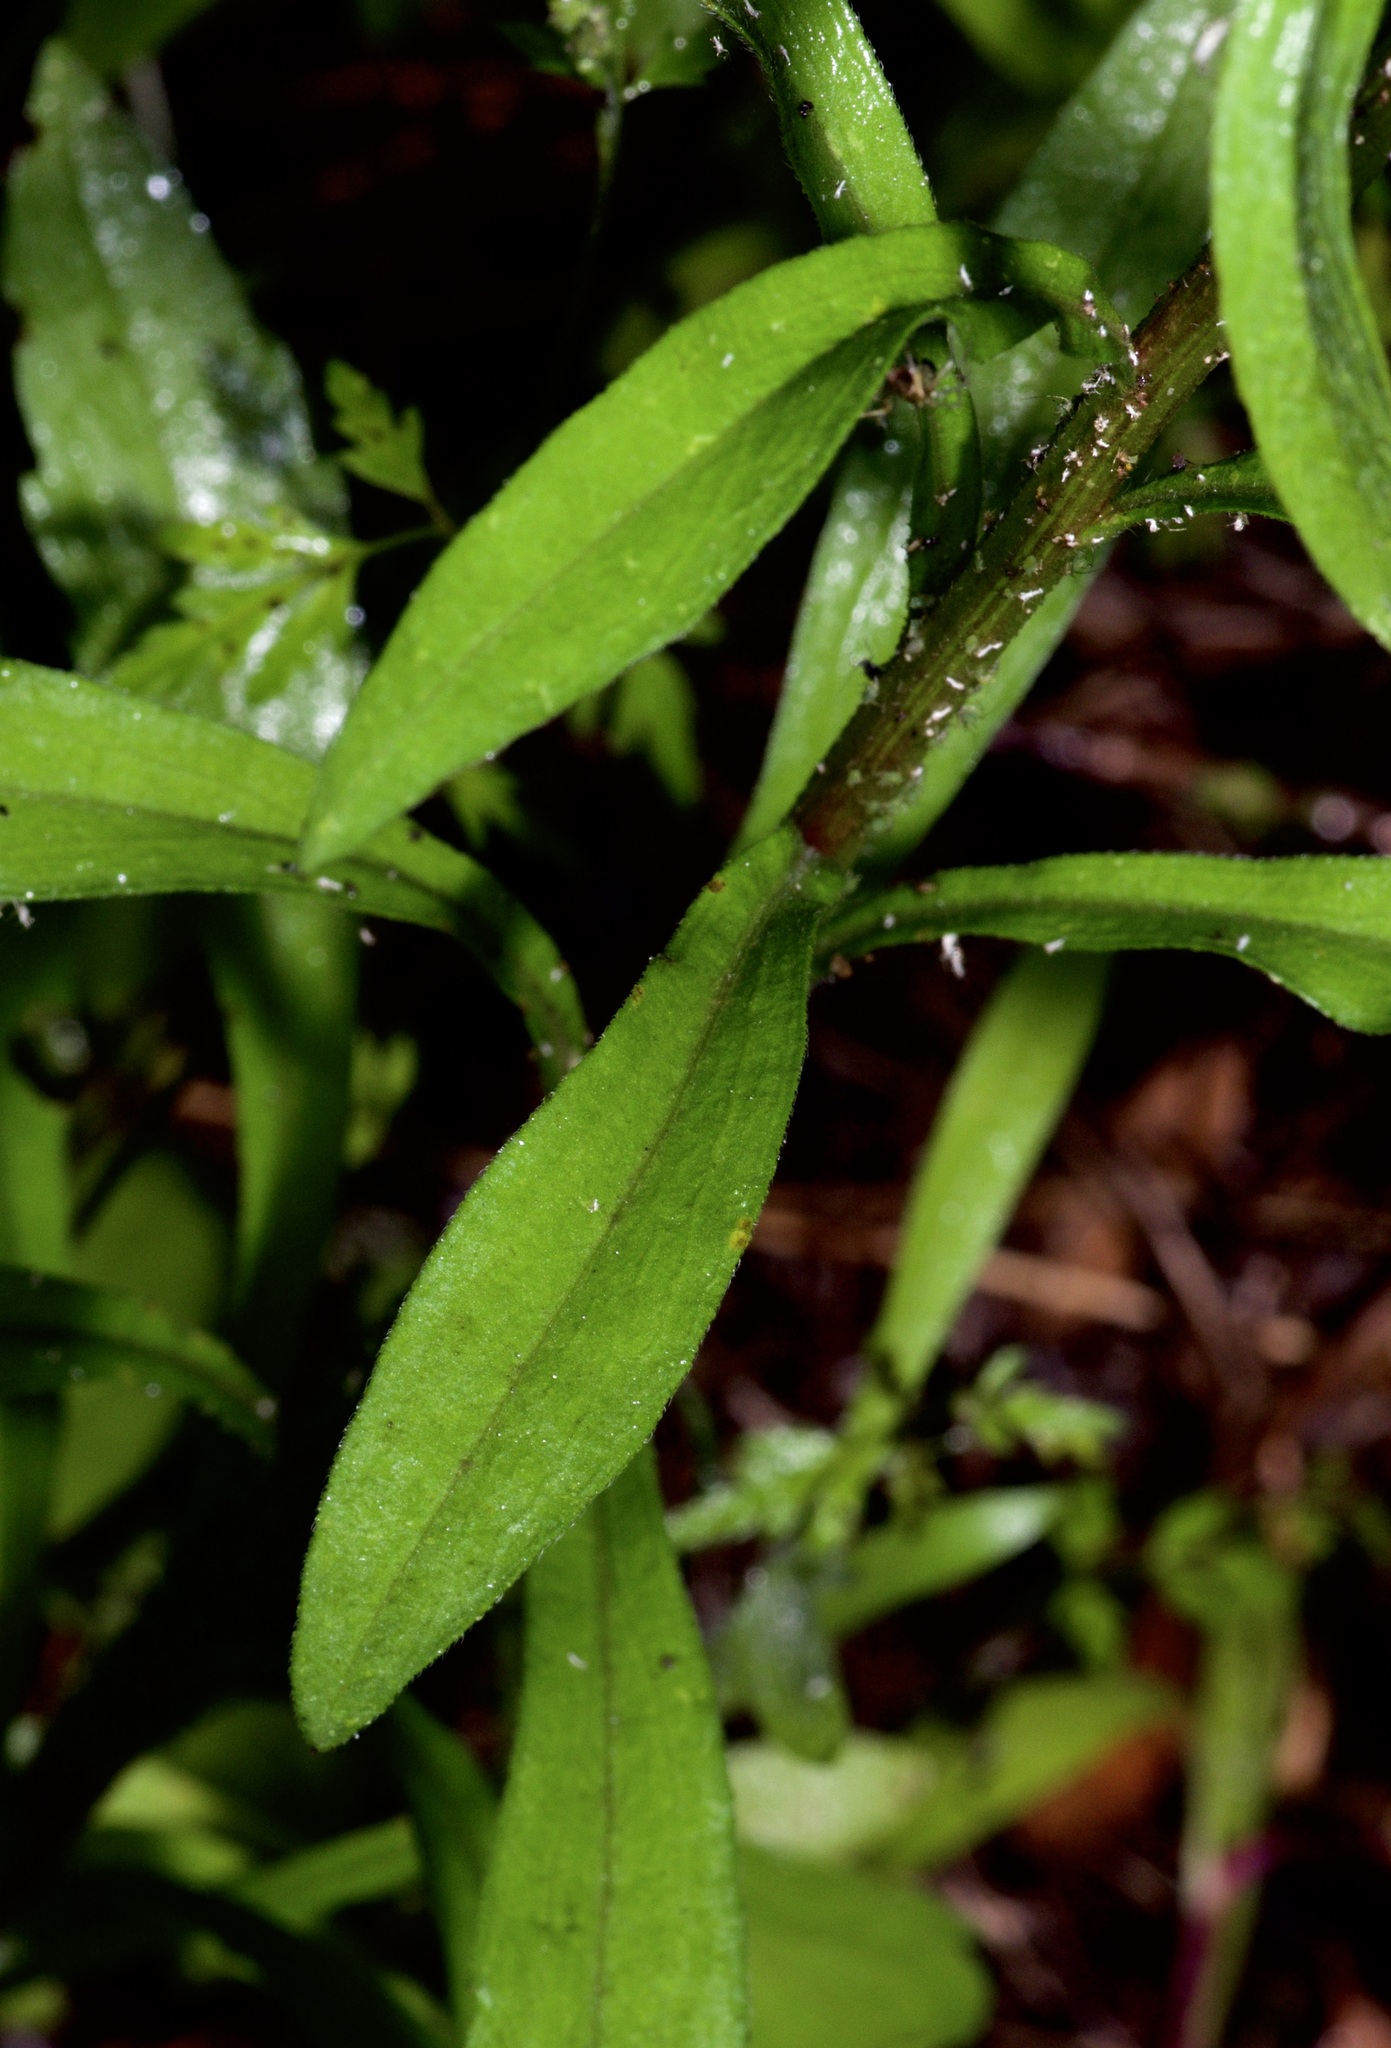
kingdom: Plantae
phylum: Tracheophyta
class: Magnoliopsida
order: Asterales
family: Asteraceae
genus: Erigeron
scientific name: Erigeron strigosus
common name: Common eastern fleabane
